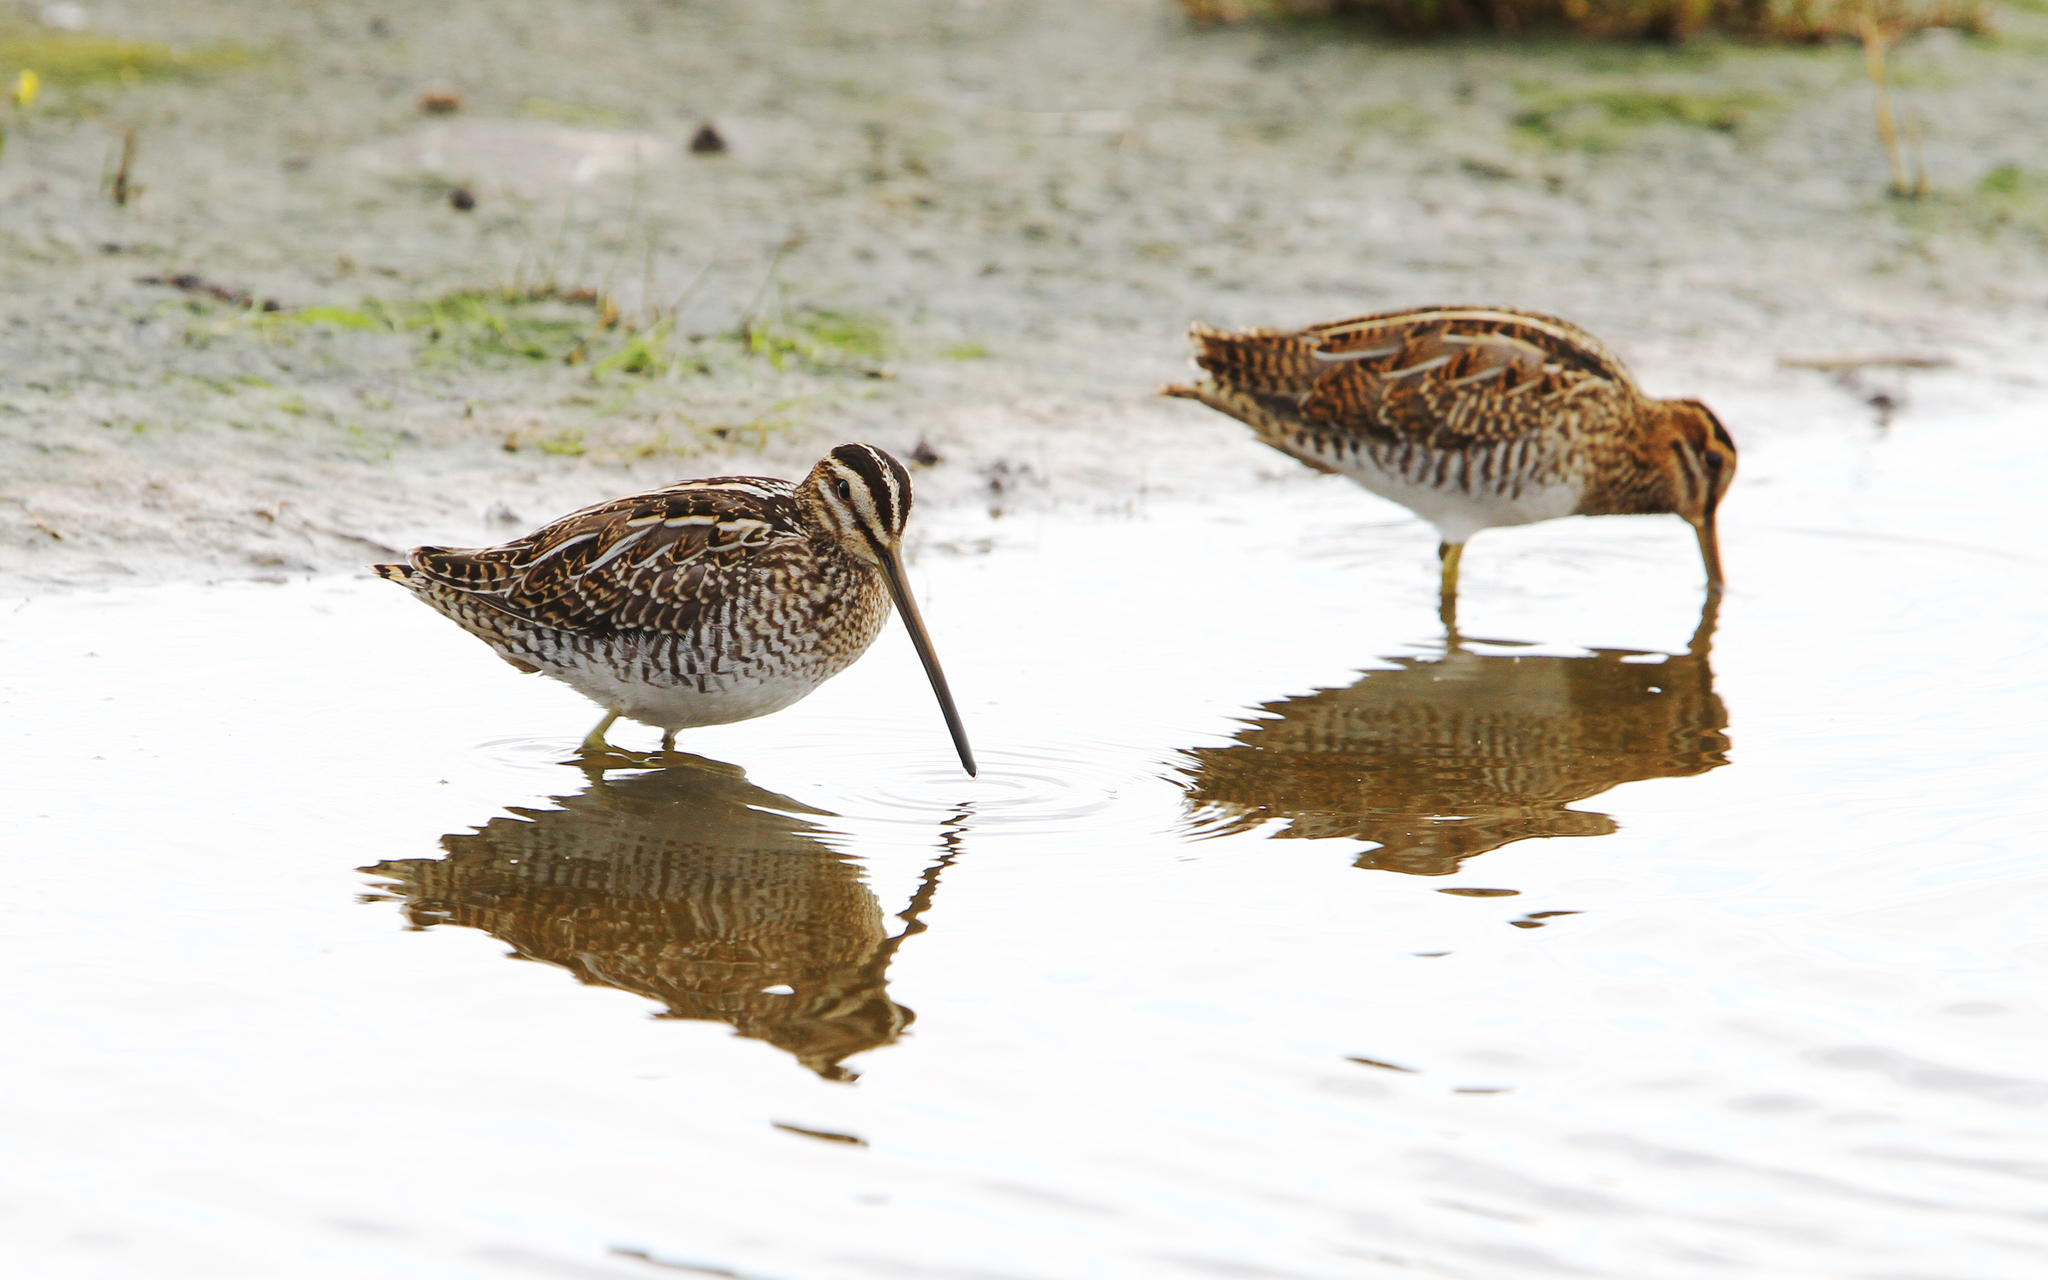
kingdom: Animalia
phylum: Chordata
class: Aves
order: Charadriiformes
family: Scolopacidae
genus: Gallinago
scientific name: Gallinago gallinago
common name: Common snipe
